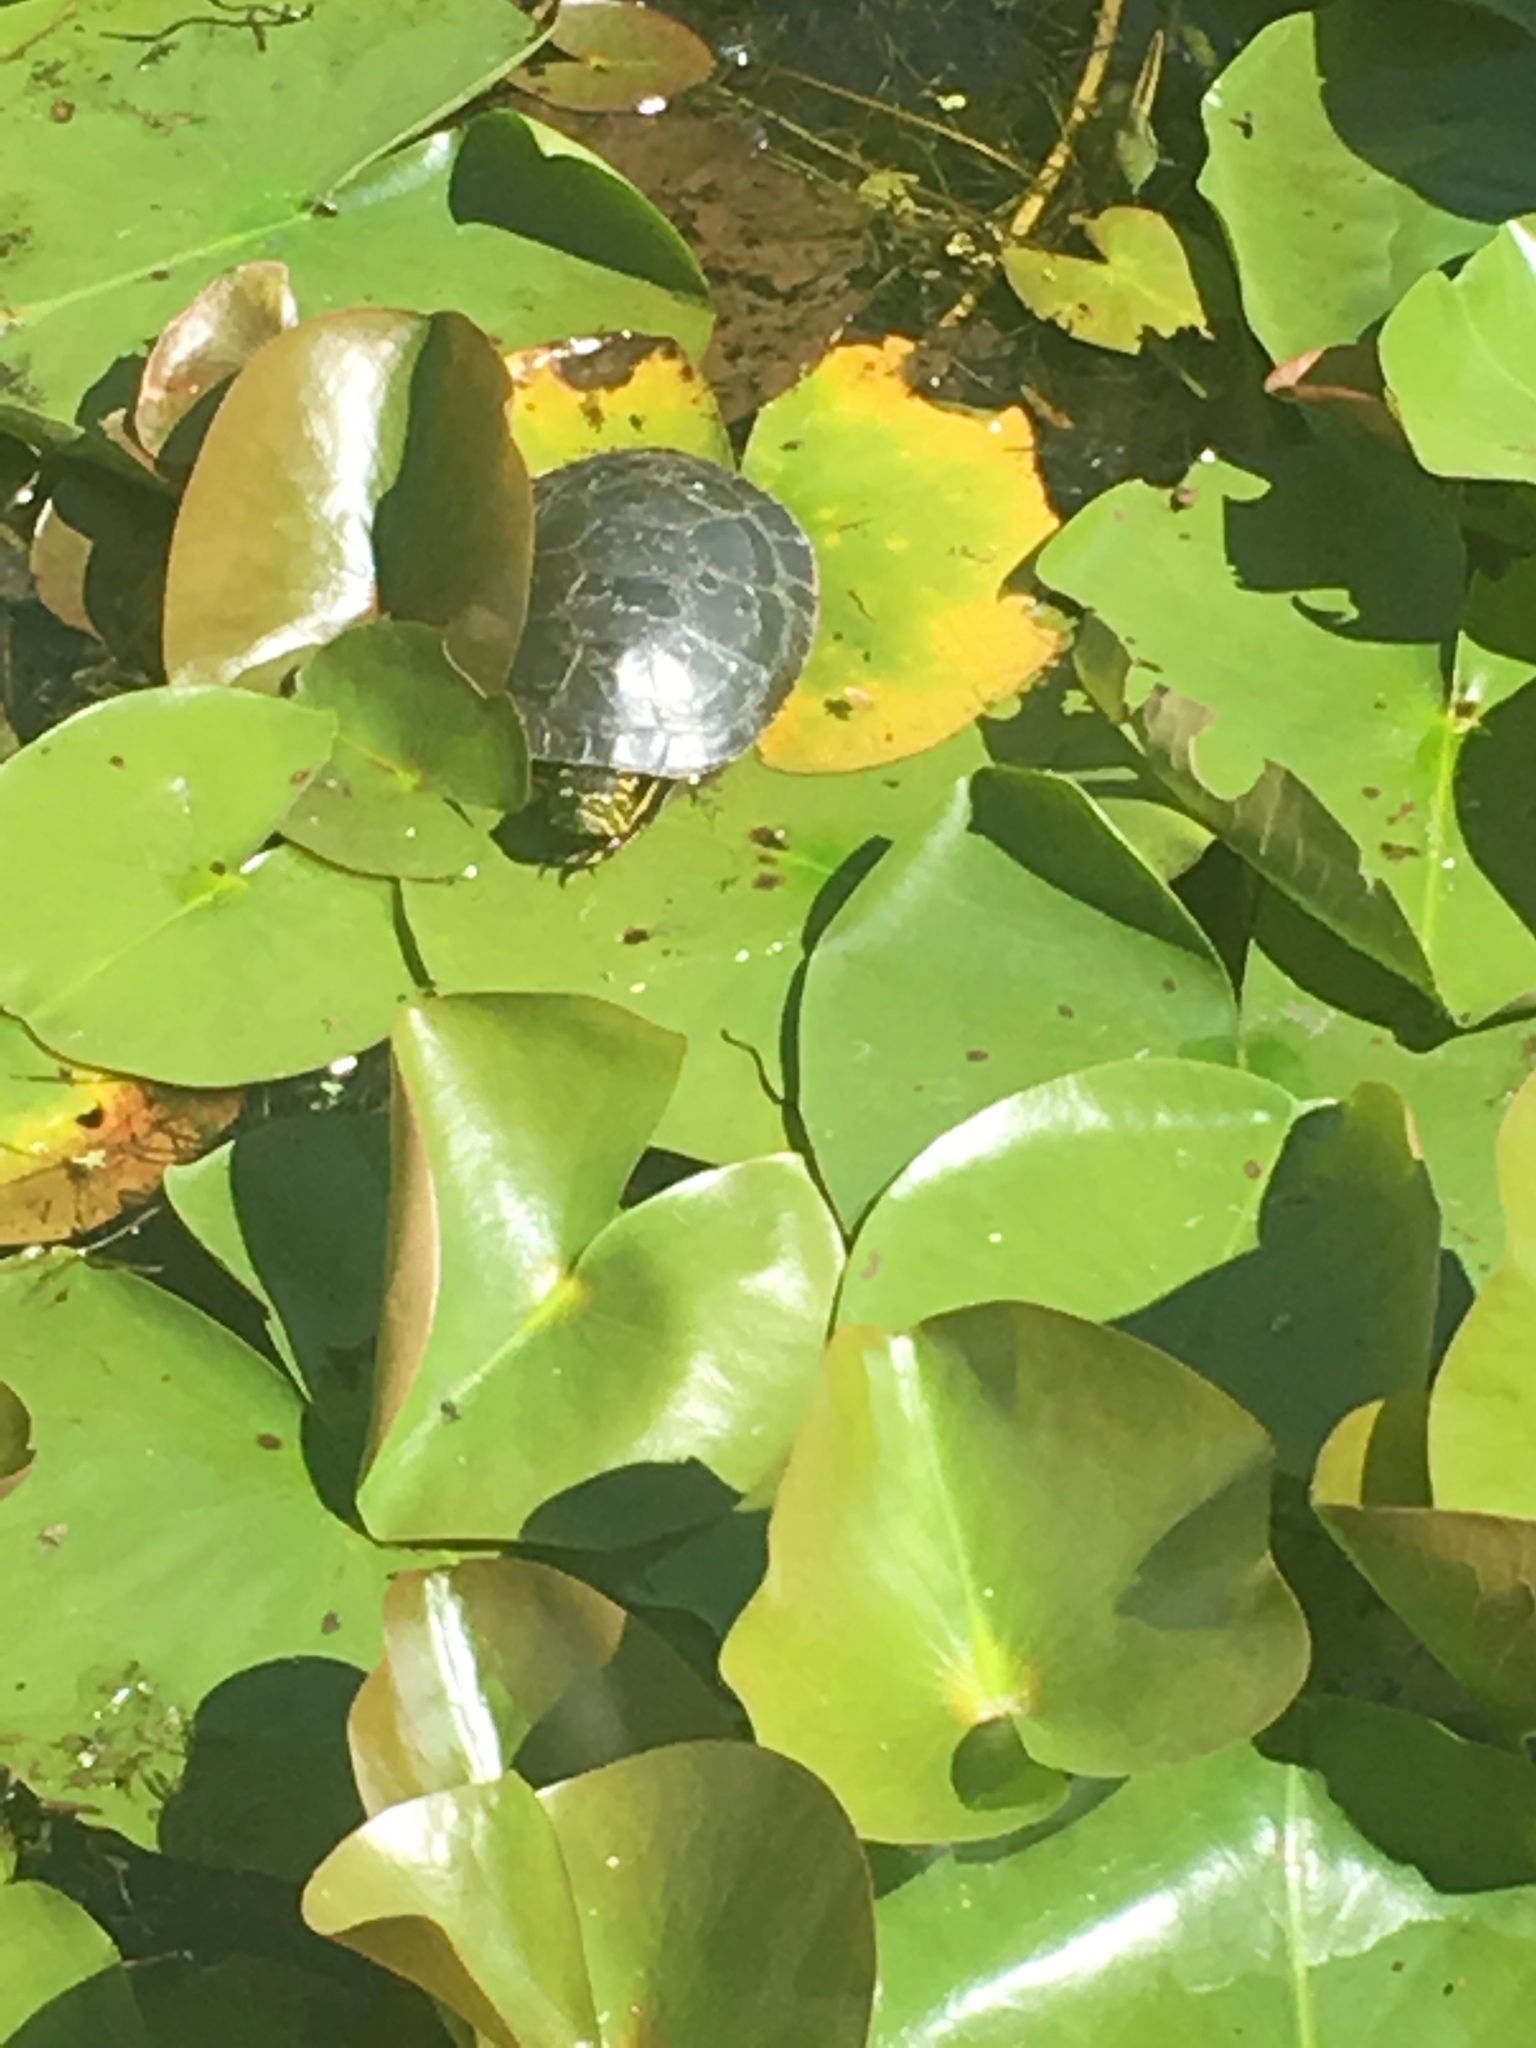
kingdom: Animalia
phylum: Chordata
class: Testudines
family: Emydidae
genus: Chrysemys
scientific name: Chrysemys picta
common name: Painted turtle
